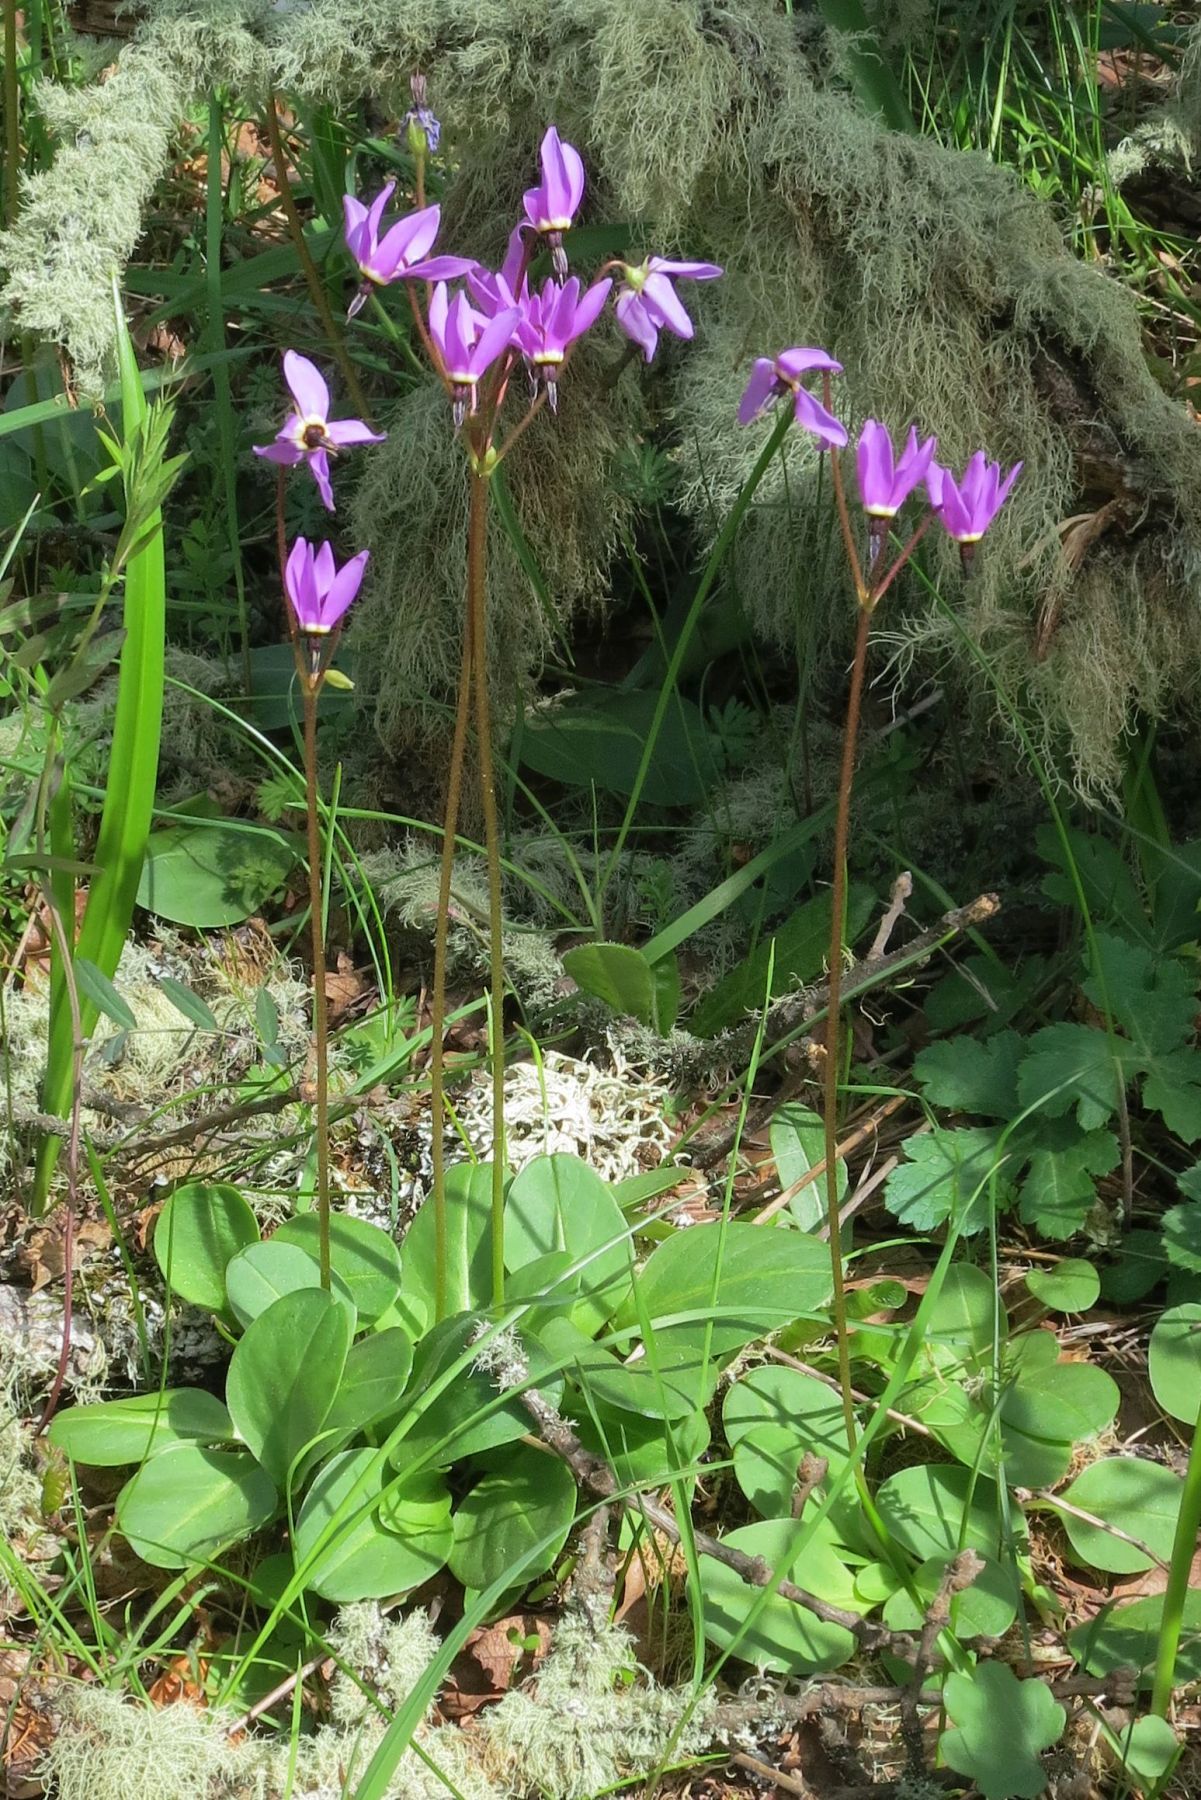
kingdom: Plantae
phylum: Tracheophyta
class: Magnoliopsida
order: Ericales
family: Primulaceae
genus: Dodecatheon
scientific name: Dodecatheon hendersonii
